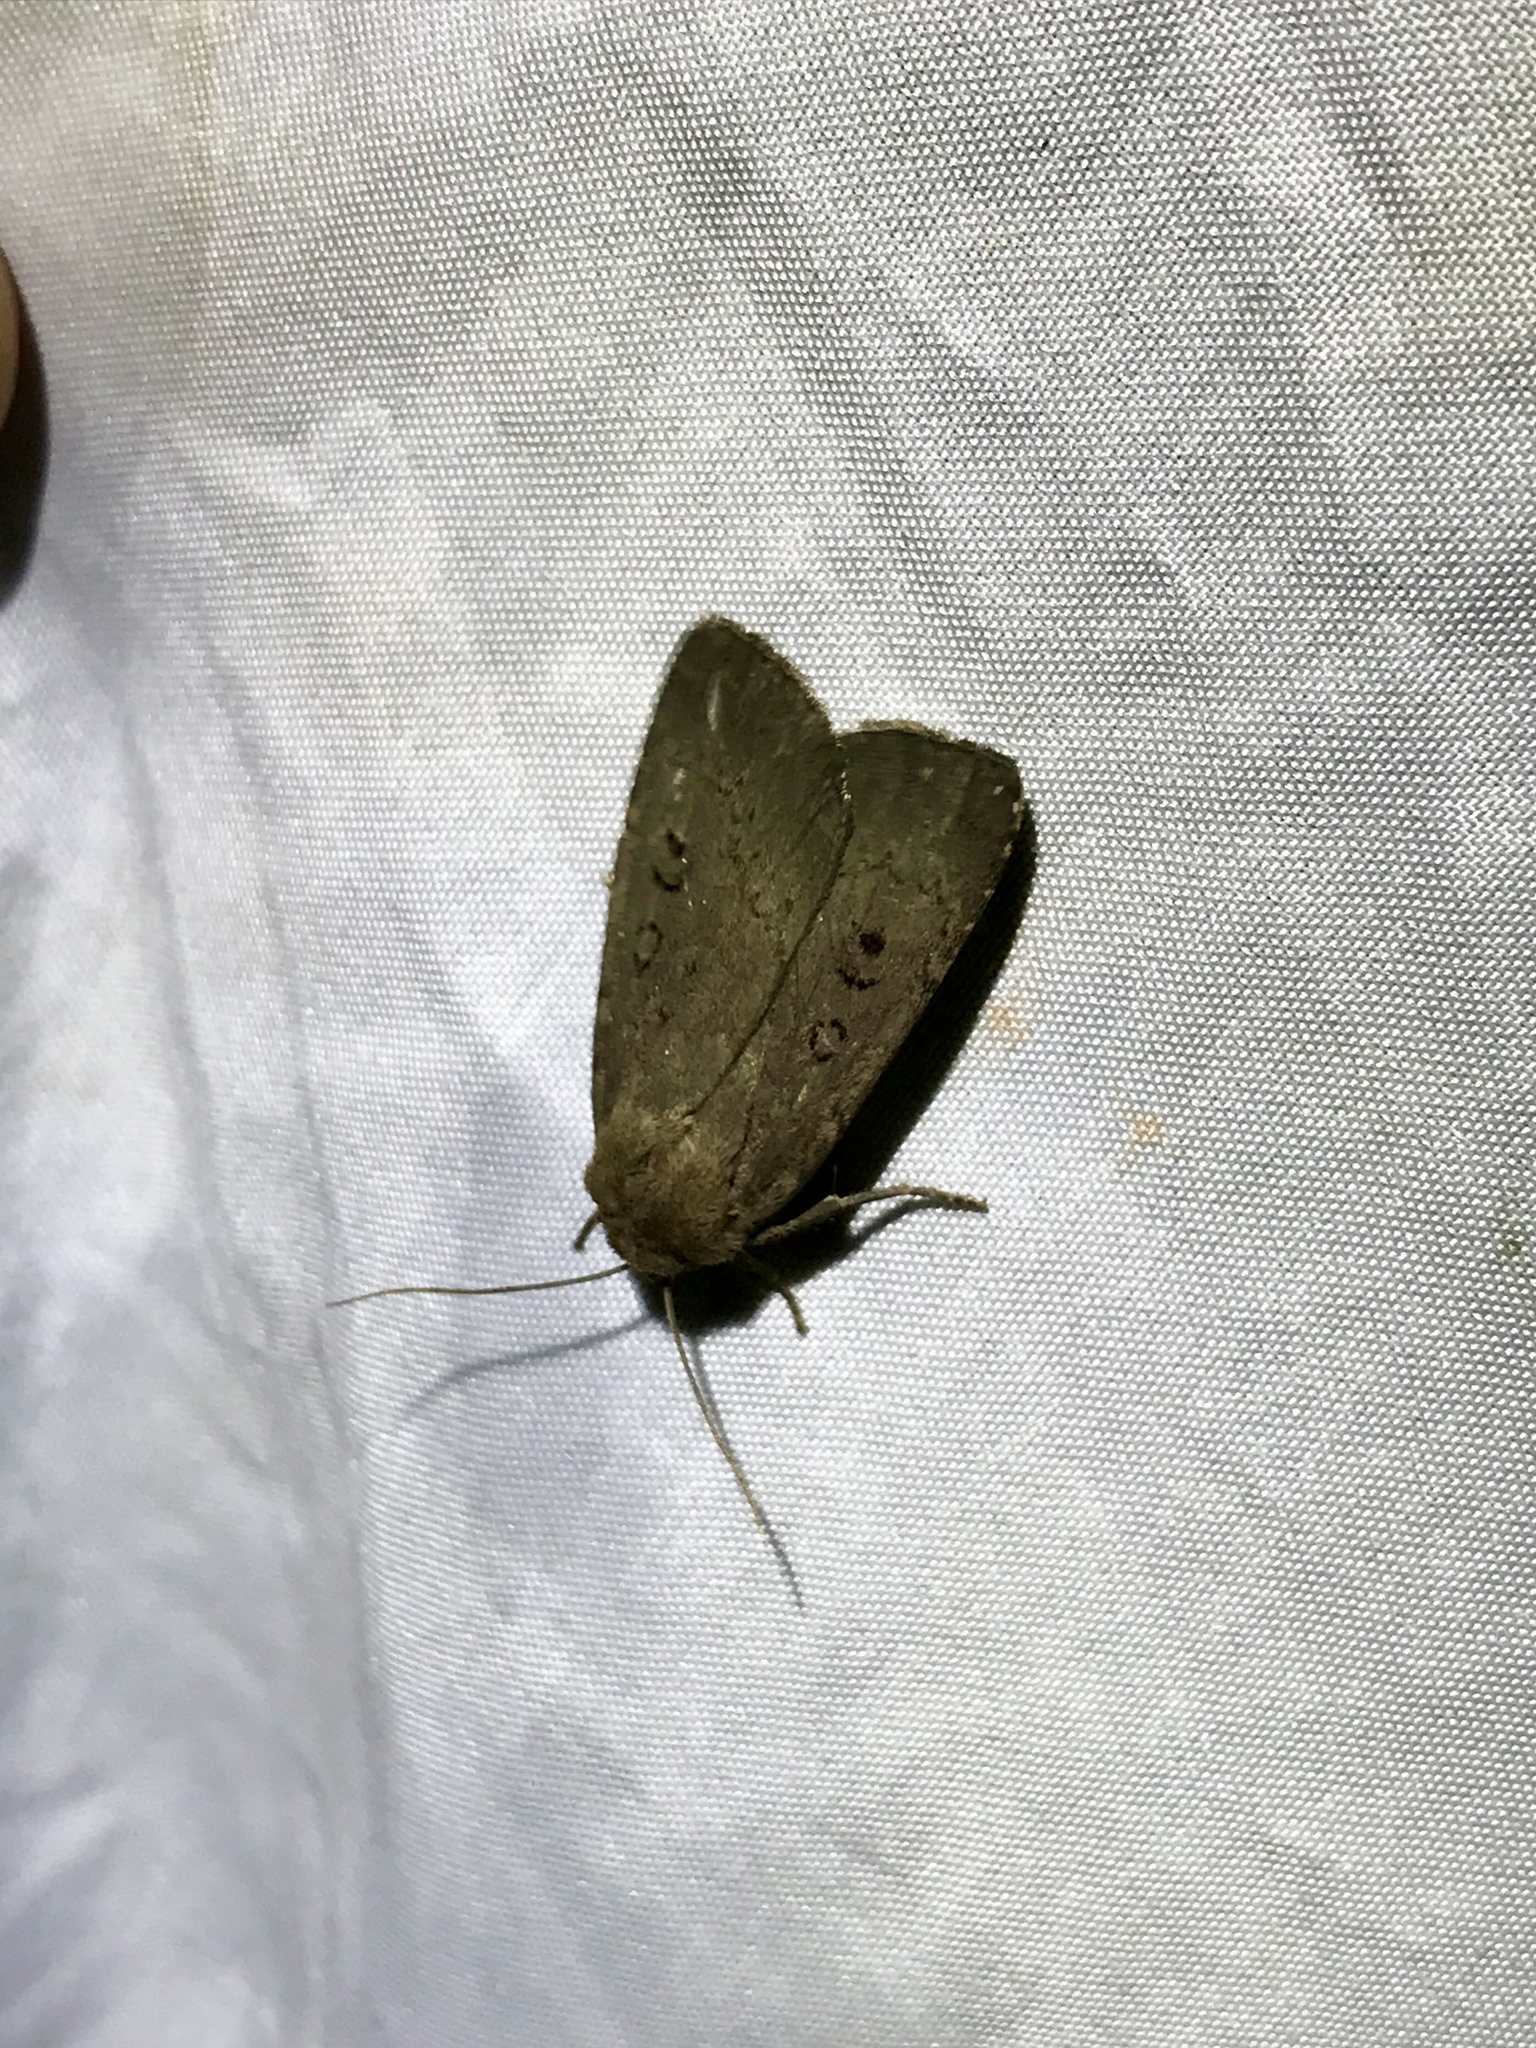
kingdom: Animalia
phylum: Arthropoda
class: Insecta
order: Lepidoptera
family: Noctuidae
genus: Graphiphora
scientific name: Graphiphora augur
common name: Double dart
